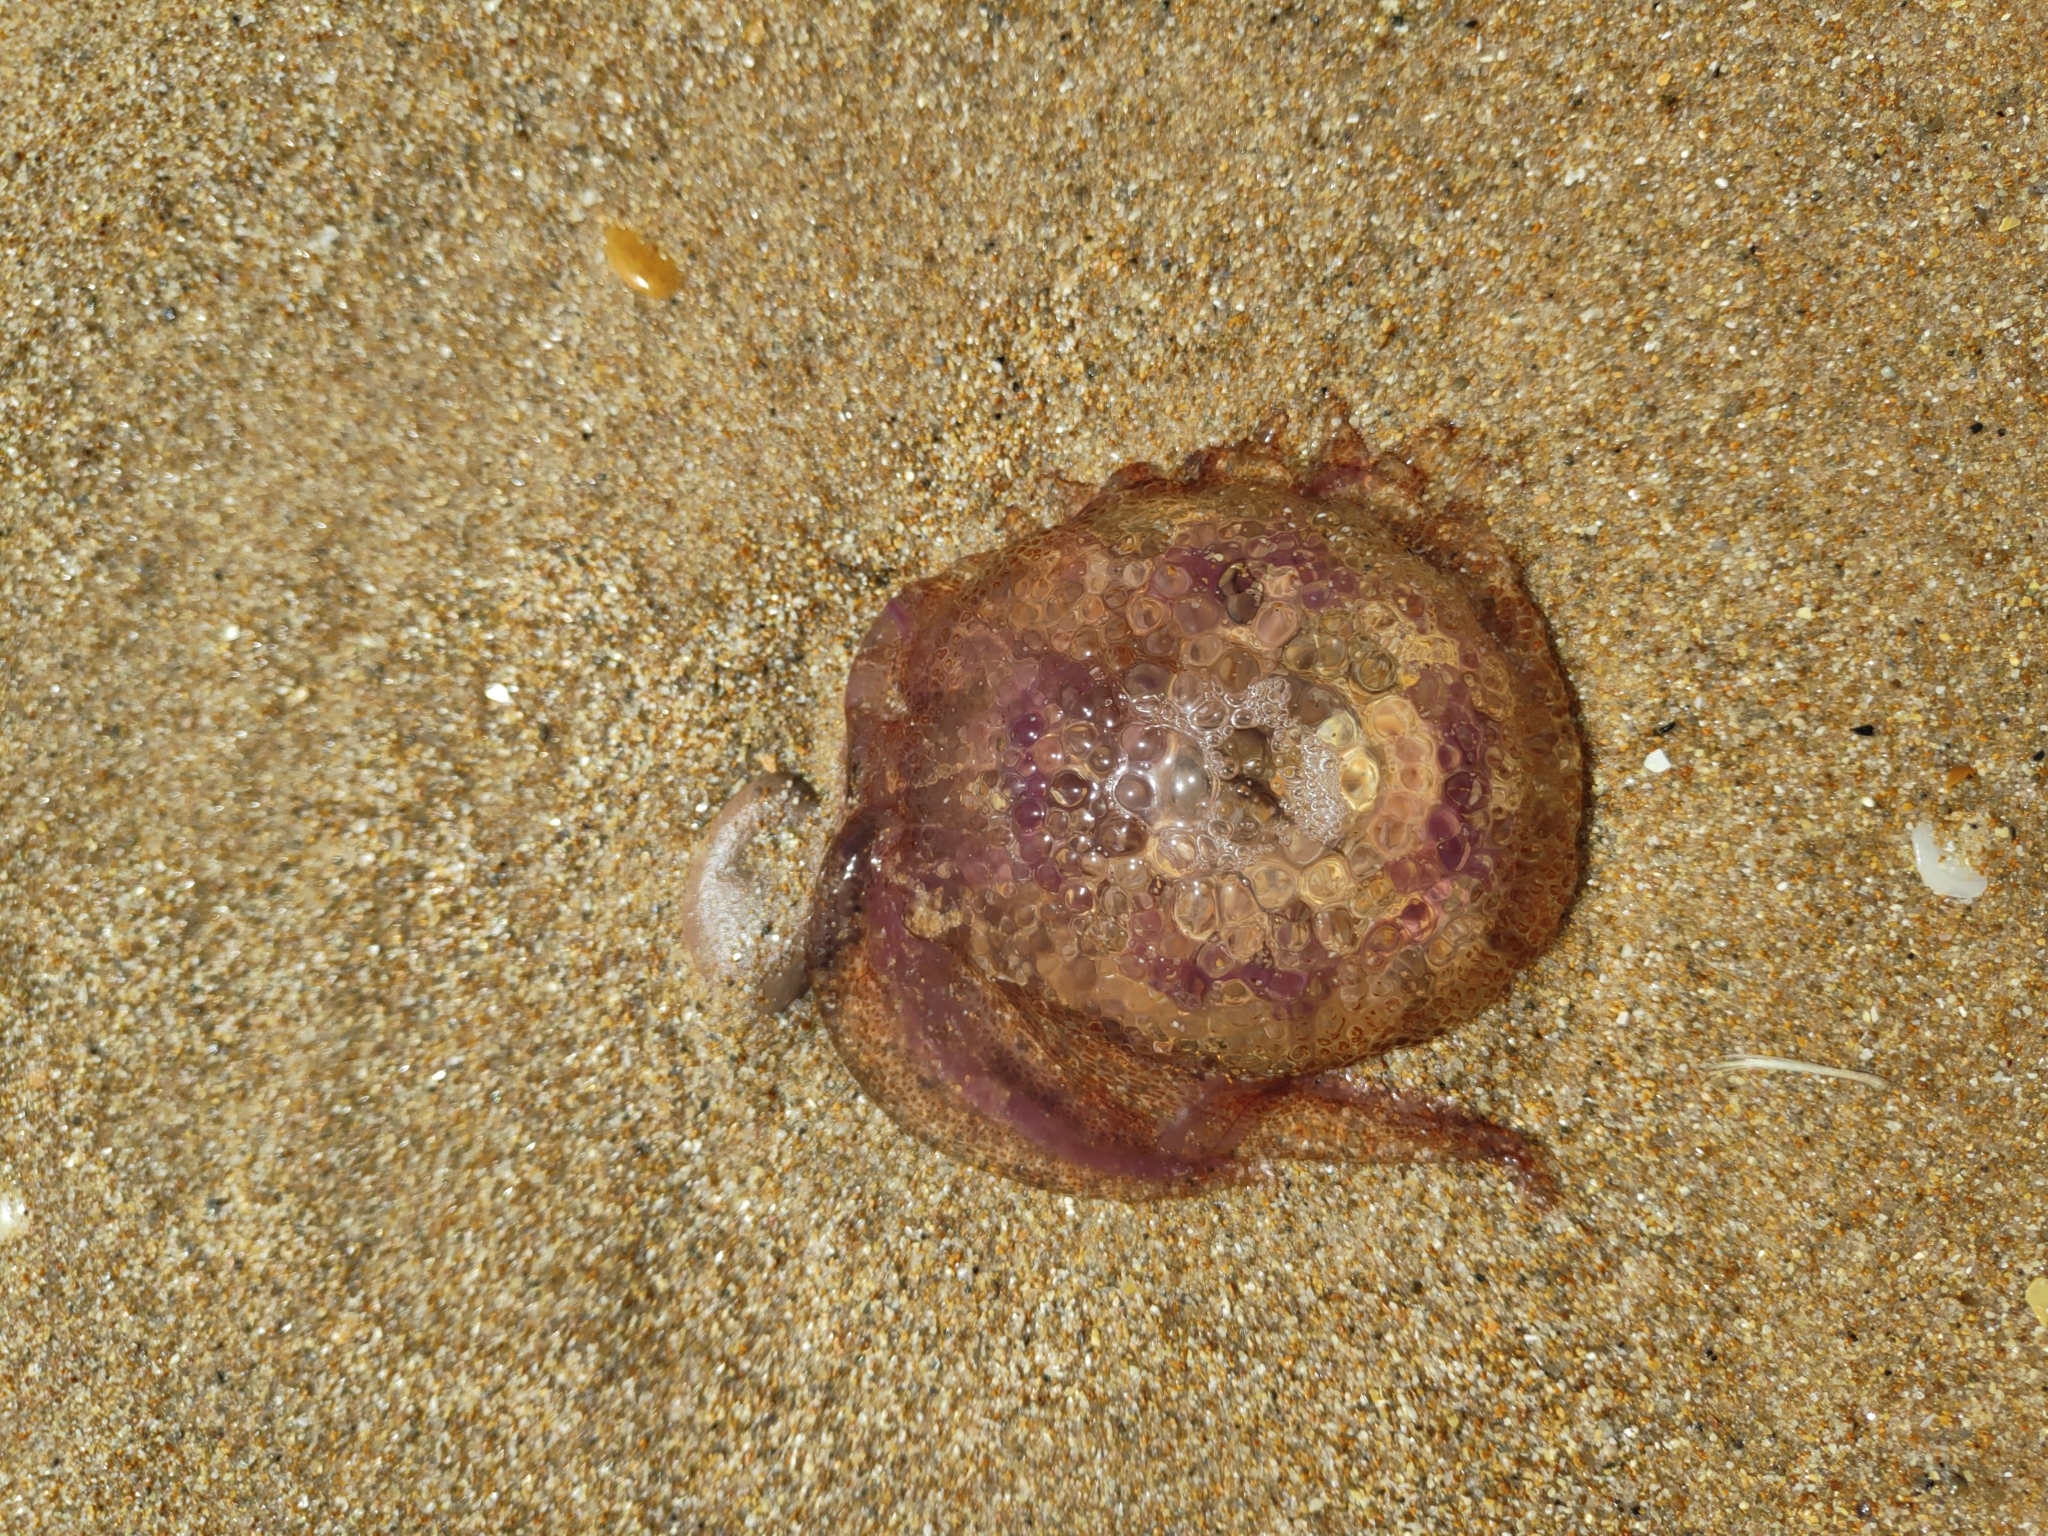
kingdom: Animalia
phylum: Cnidaria
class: Scyphozoa
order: Semaeostomeae
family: Pelagiidae
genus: Pelagia
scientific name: Pelagia noctiluca
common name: Mauve stinger
